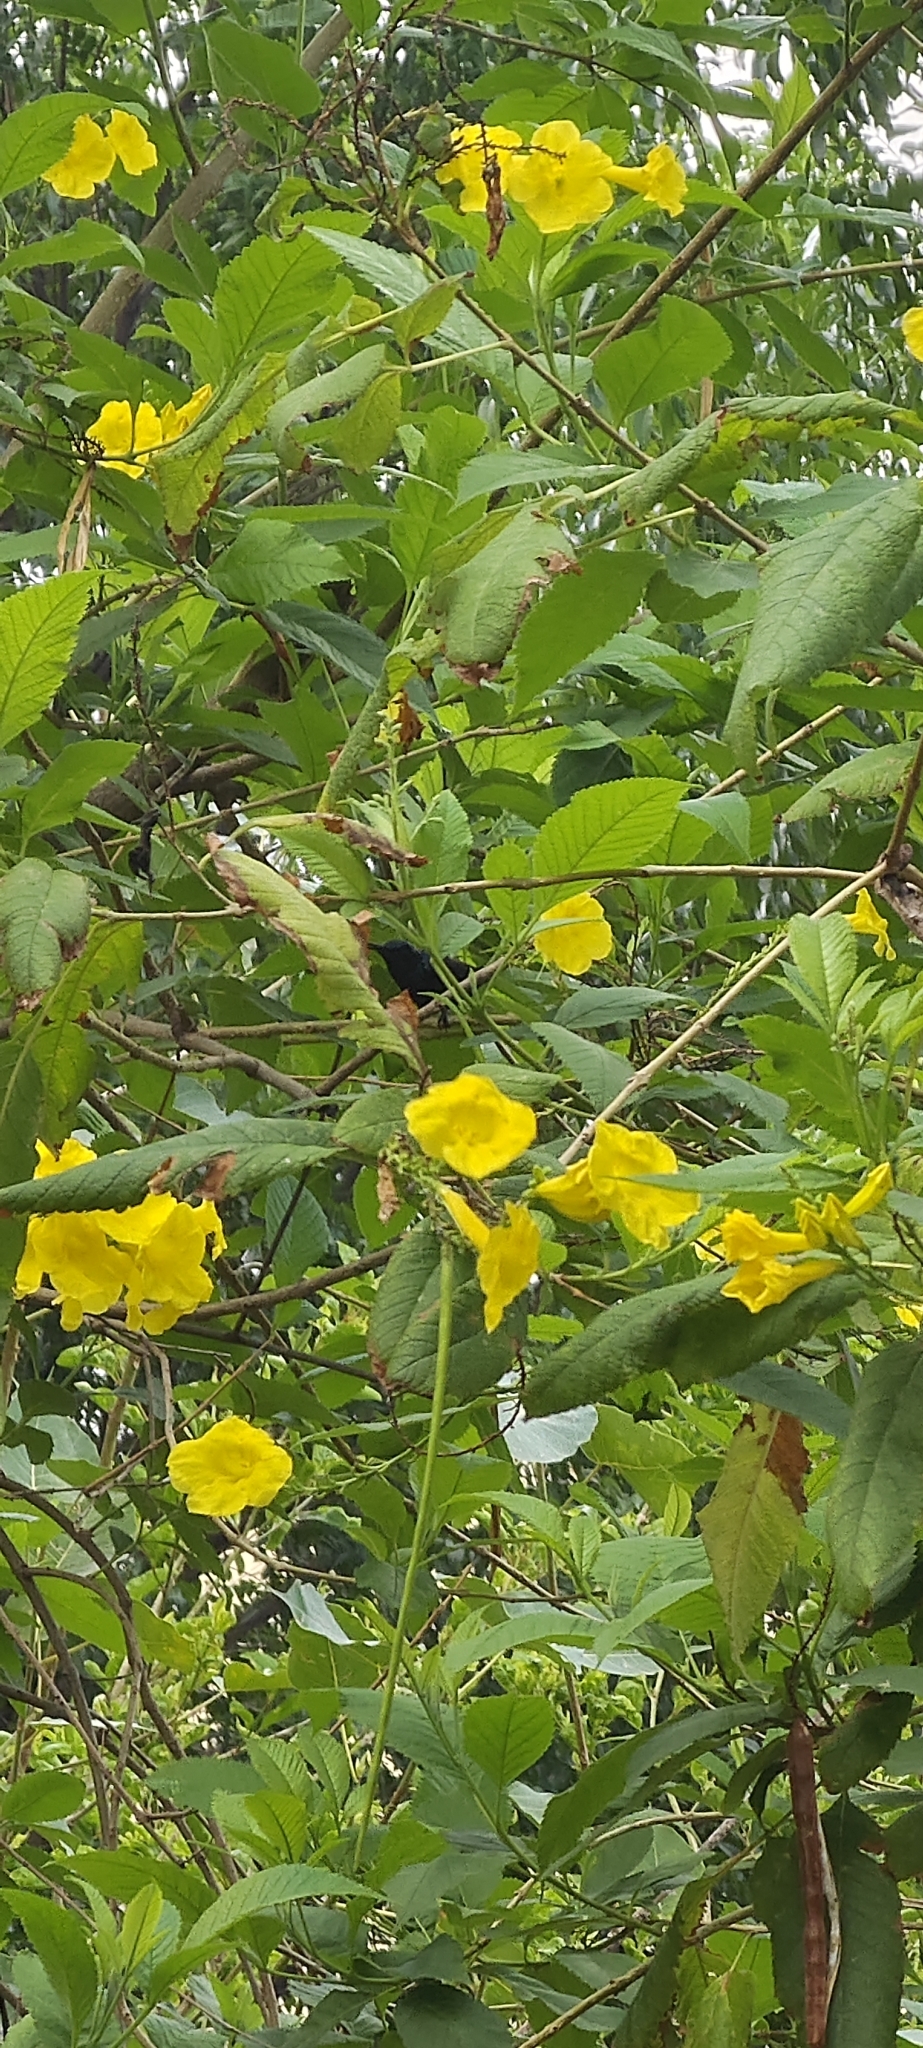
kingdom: Animalia
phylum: Chordata
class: Aves
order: Passeriformes
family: Nectariniidae
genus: Cinnyris
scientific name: Cinnyris asiaticus
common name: Purple sunbird
